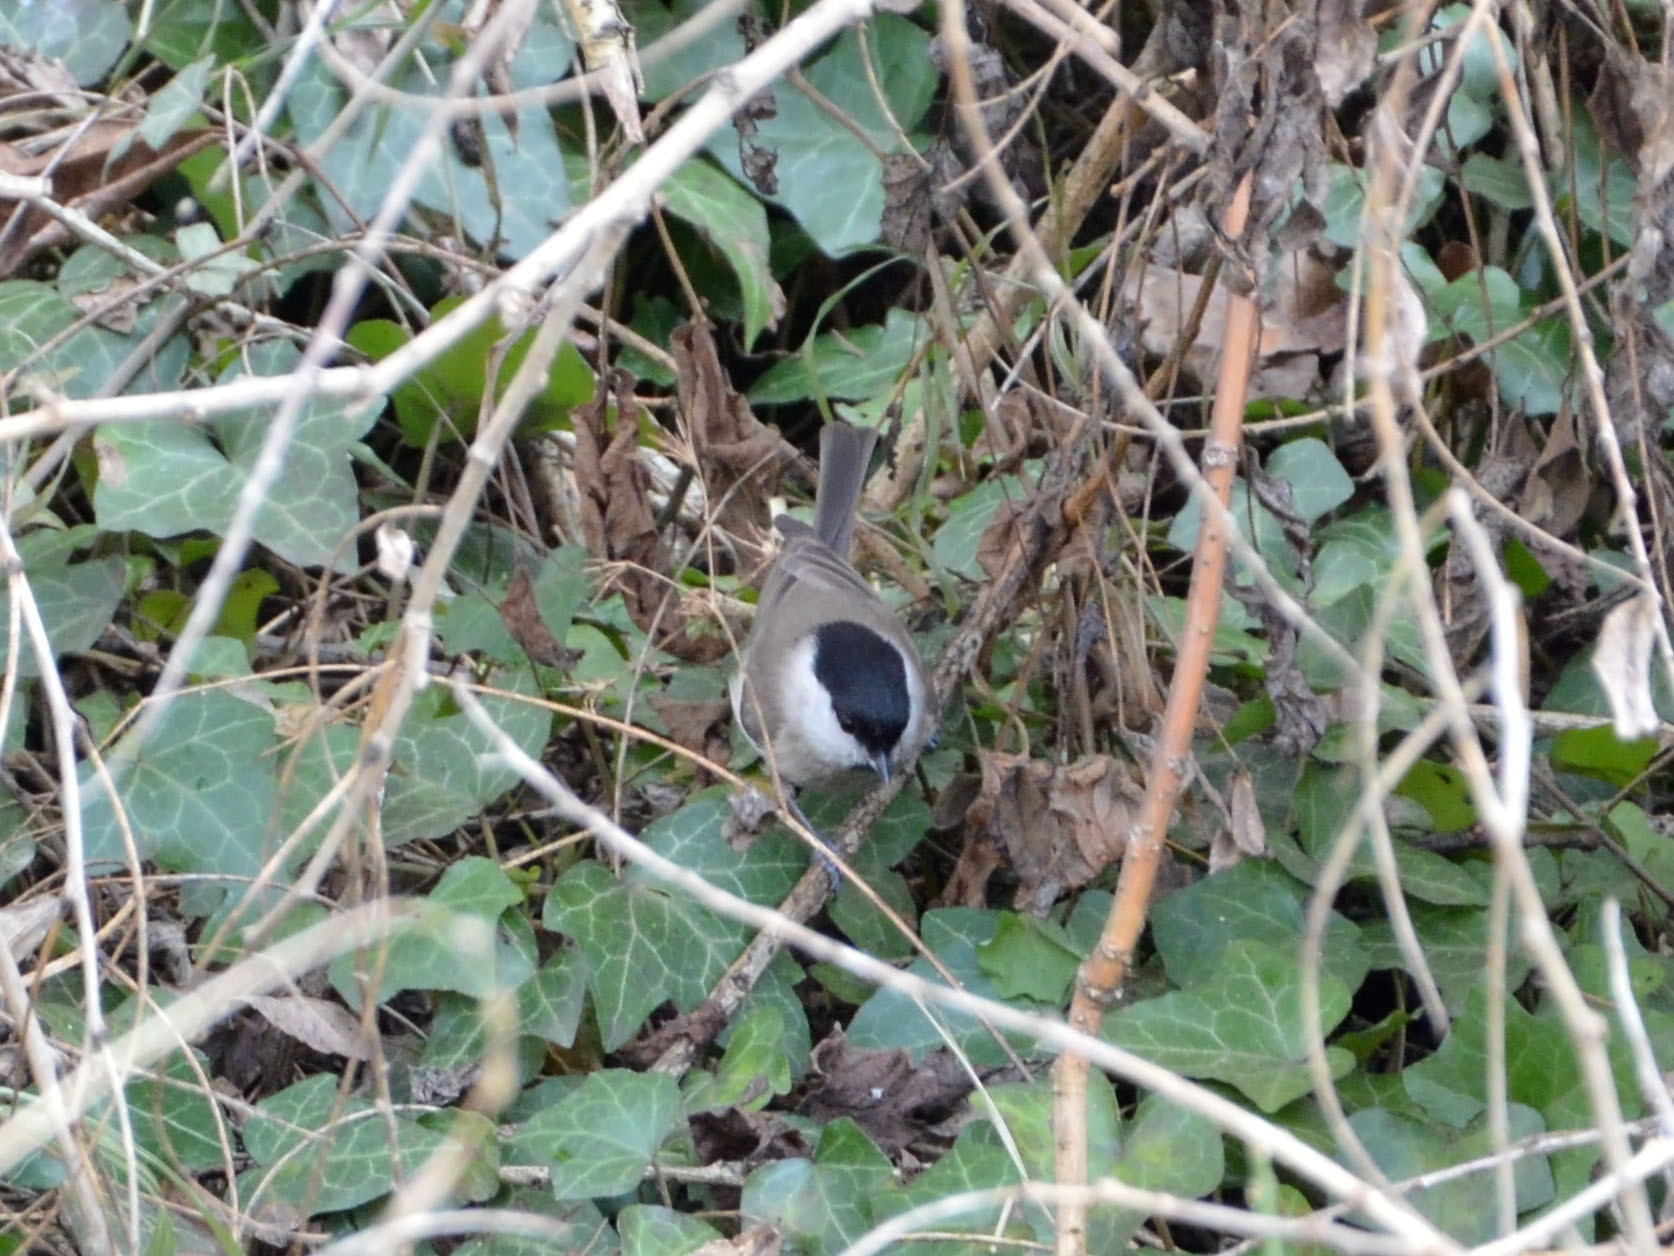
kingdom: Animalia
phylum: Chordata
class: Aves
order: Passeriformes
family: Paridae
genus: Poecile
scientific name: Poecile palustris
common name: Marsh tit
